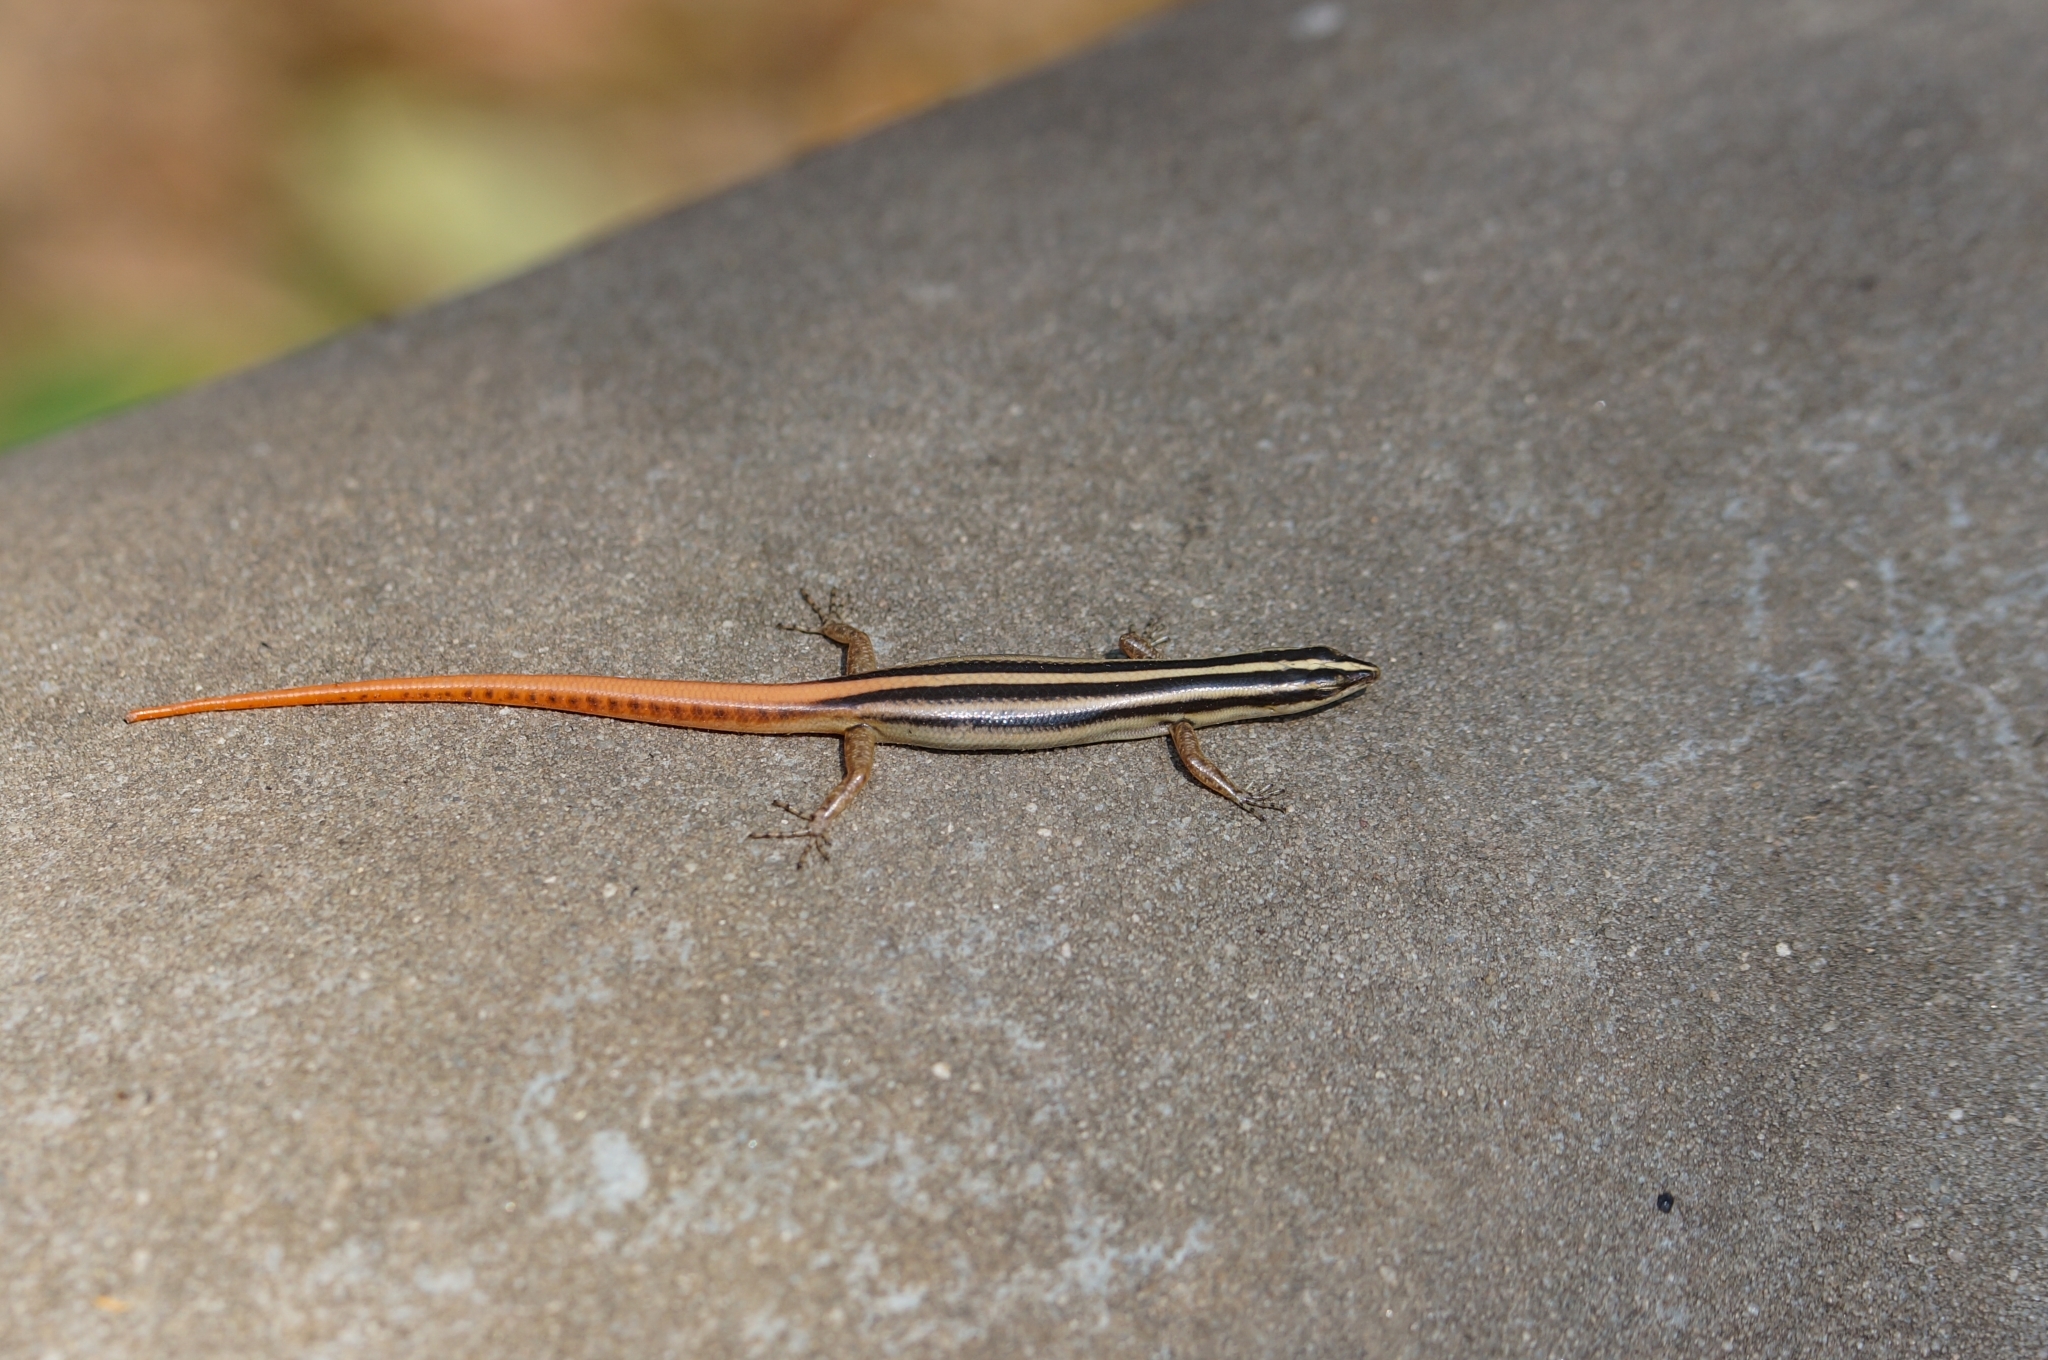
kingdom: Animalia
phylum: Chordata
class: Squamata
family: Scincidae
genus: Lipinia
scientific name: Lipinia microcerca
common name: Banded lipinia
